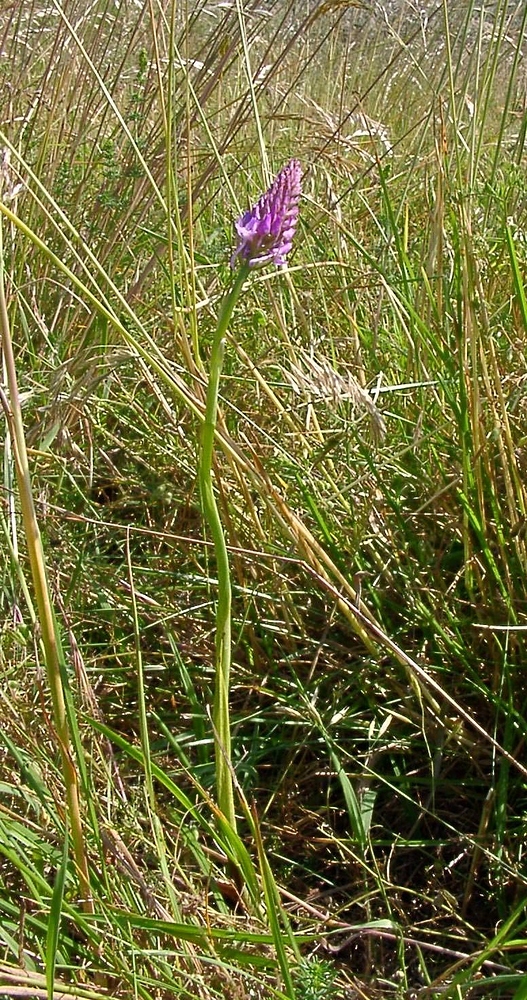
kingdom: Plantae
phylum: Tracheophyta
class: Liliopsida
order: Asparagales
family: Orchidaceae
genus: Anacamptis
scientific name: Anacamptis pyramidalis
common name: Pyramidal orchid
